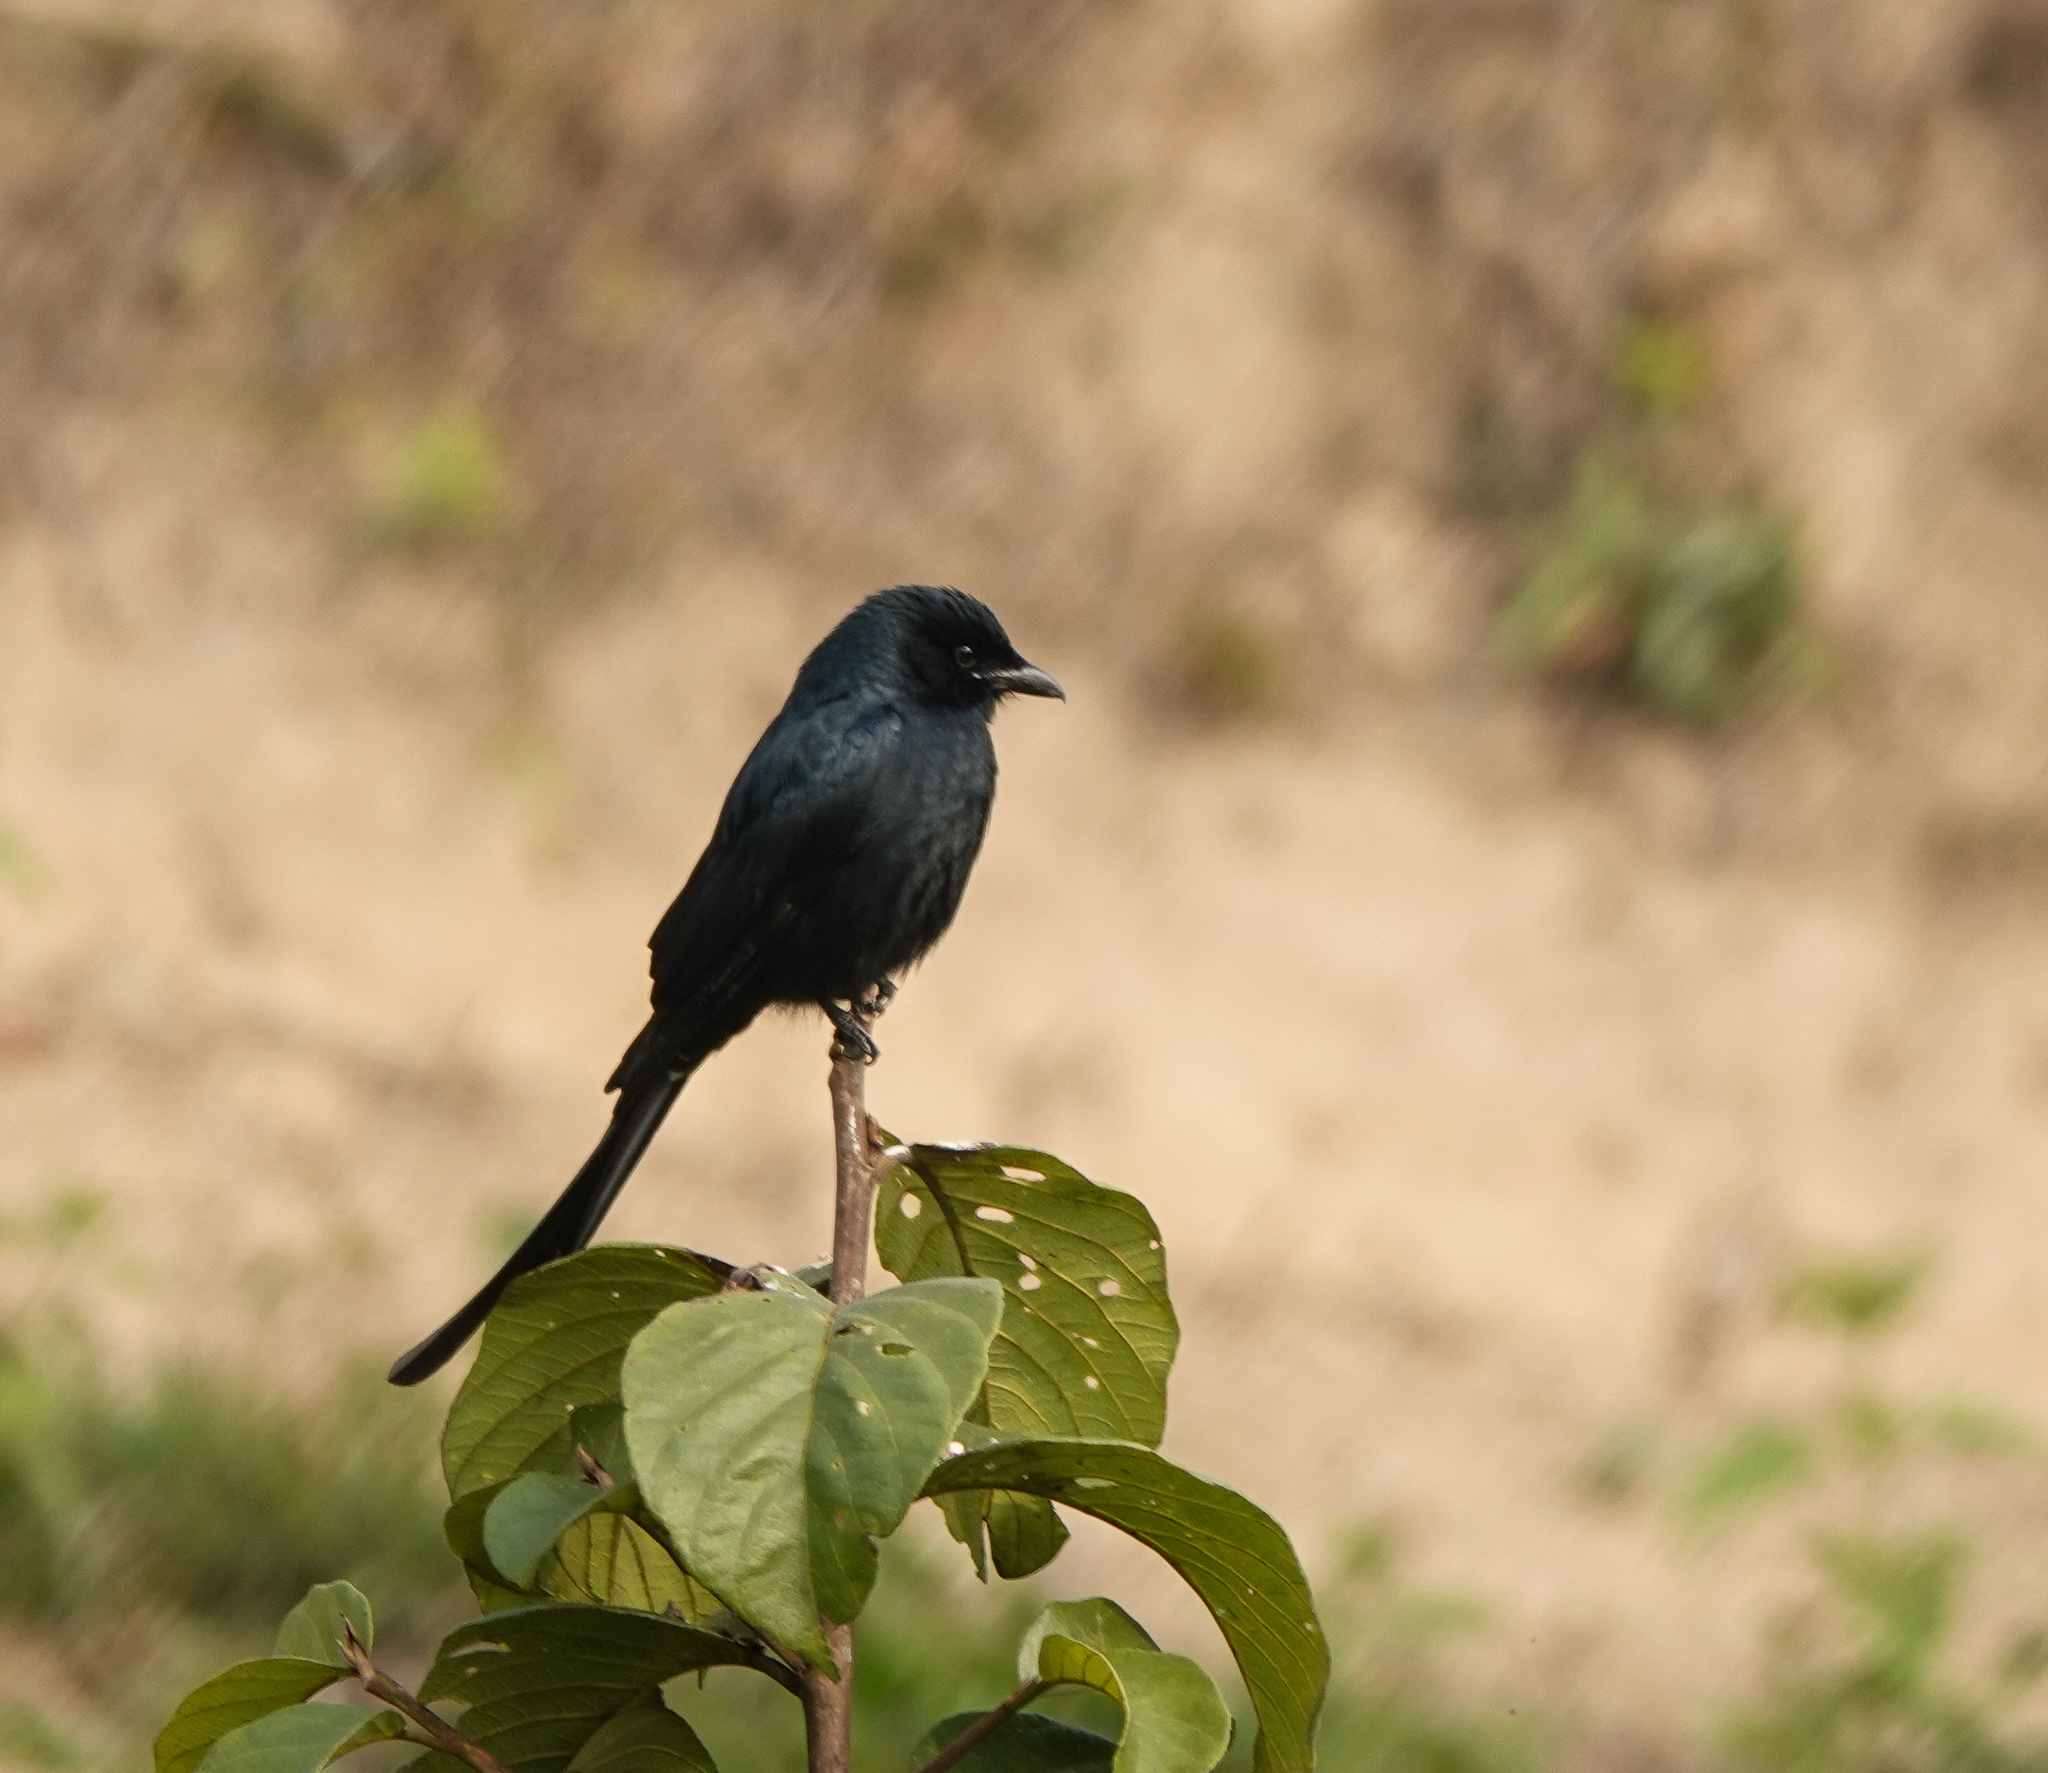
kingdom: Animalia
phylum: Chordata
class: Aves
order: Passeriformes
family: Dicruridae
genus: Dicrurus
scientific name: Dicrurus macrocercus
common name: Black drongo
